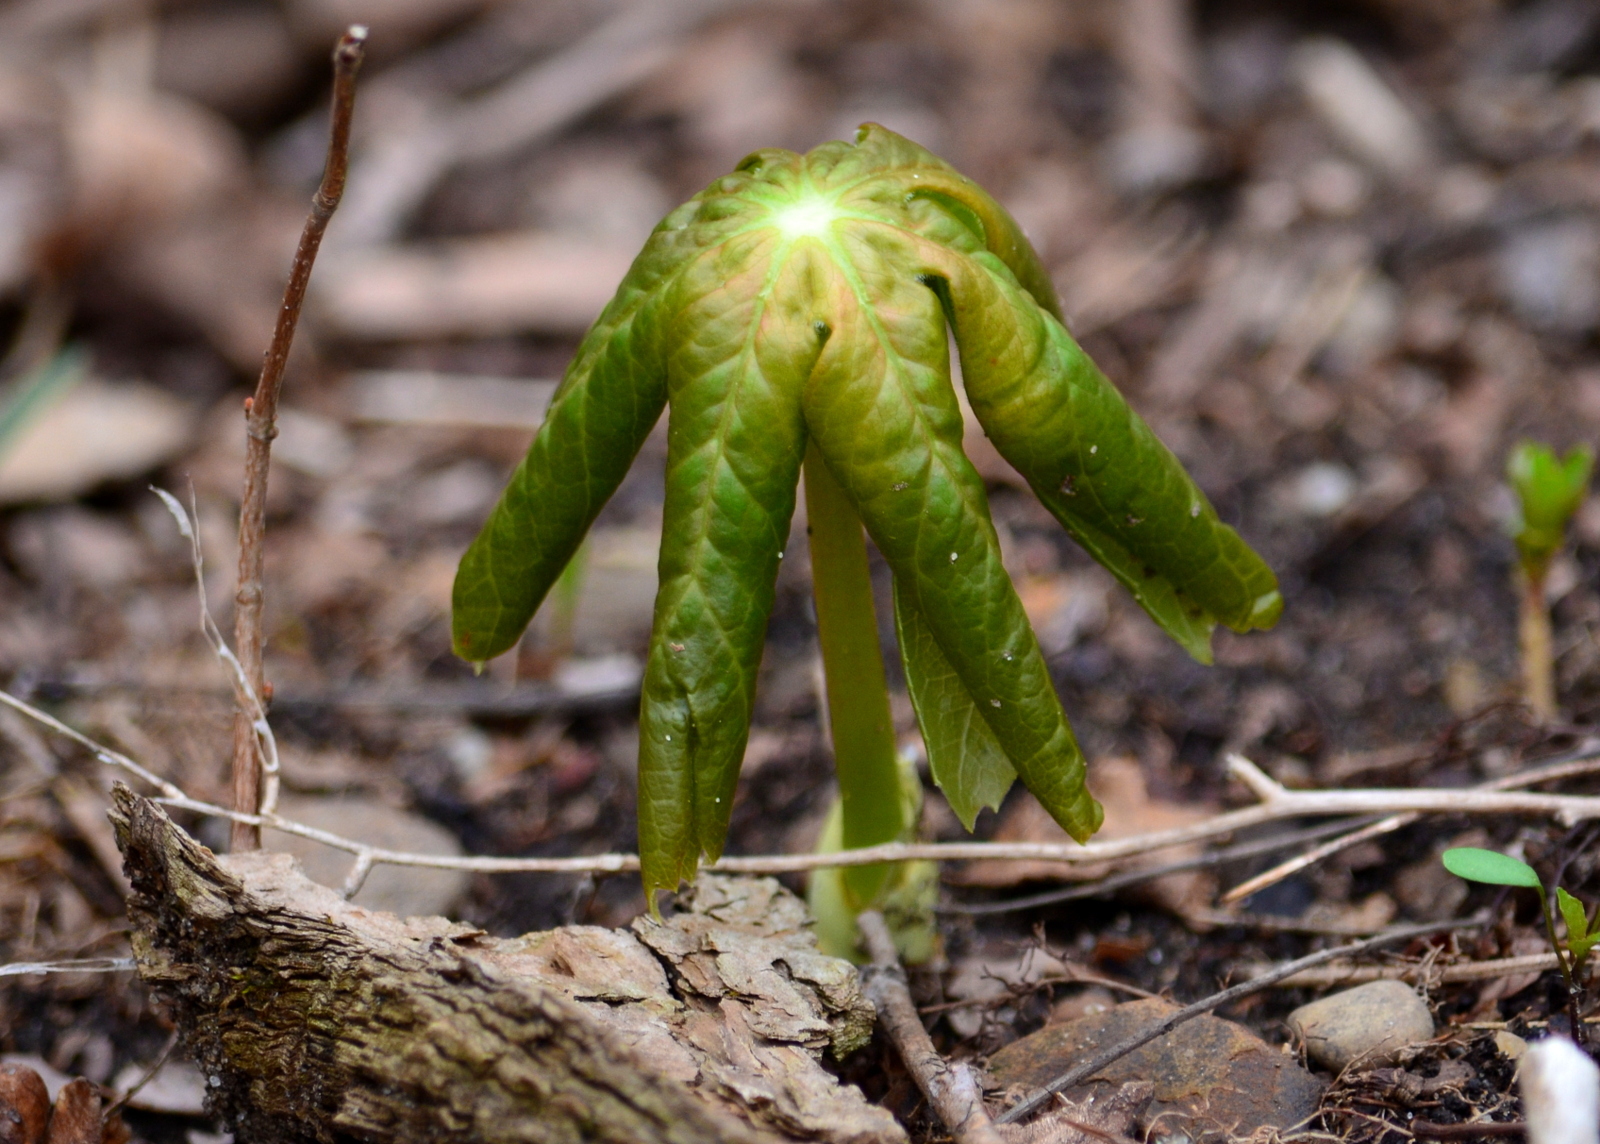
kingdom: Plantae
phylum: Tracheophyta
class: Magnoliopsida
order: Ranunculales
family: Berberidaceae
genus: Podophyllum
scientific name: Podophyllum peltatum
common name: Wild mandrake
